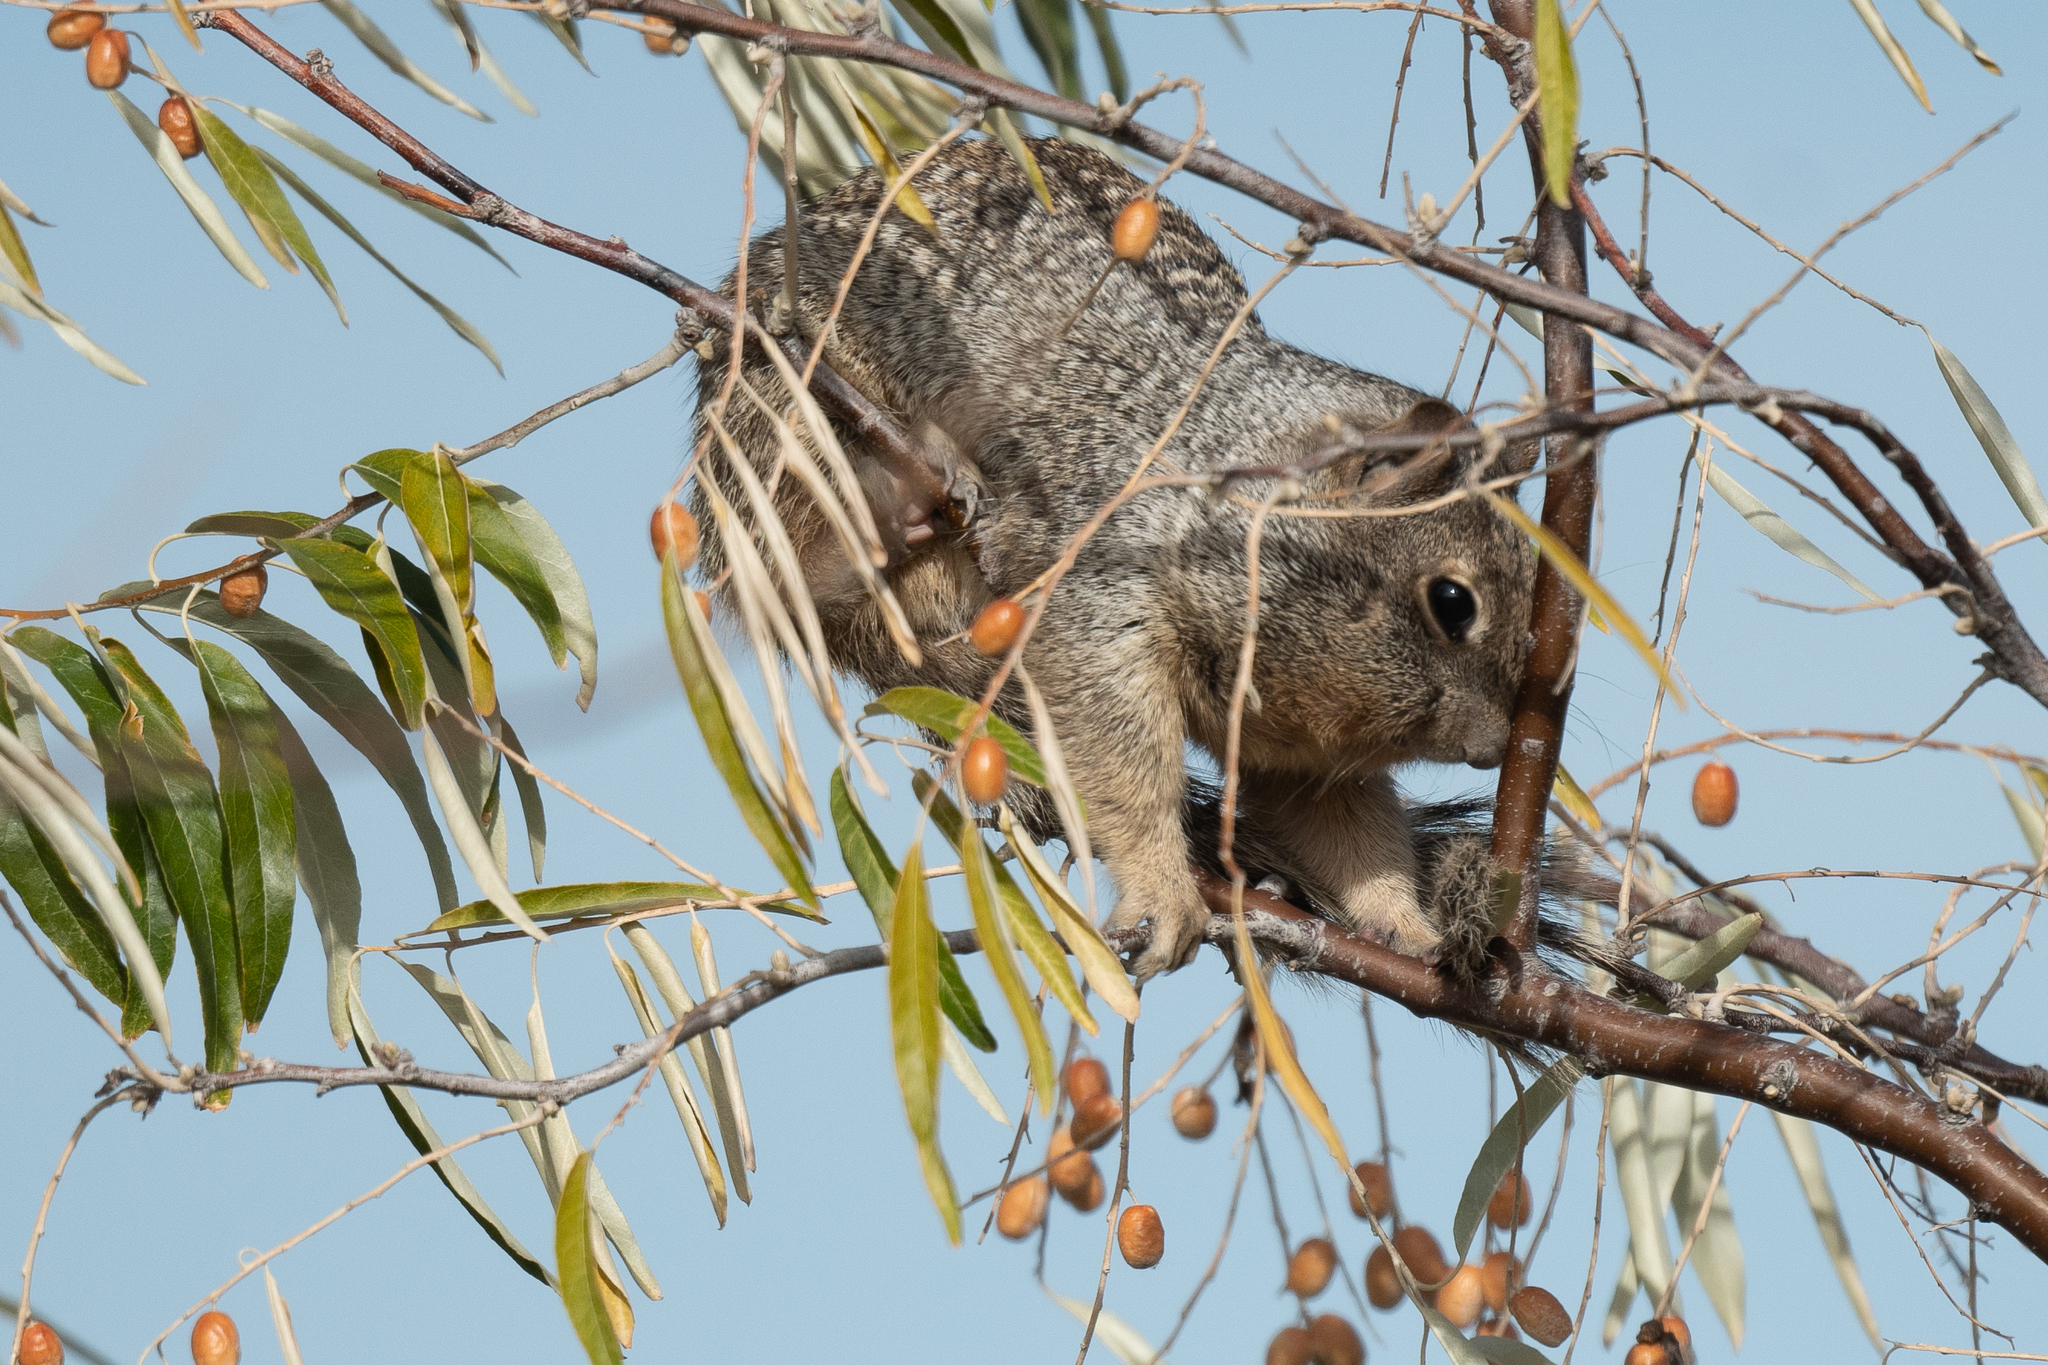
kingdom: Animalia
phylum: Chordata
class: Mammalia
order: Rodentia
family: Sciuridae
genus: Otospermophilus
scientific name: Otospermophilus variegatus
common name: Rock squirrel
